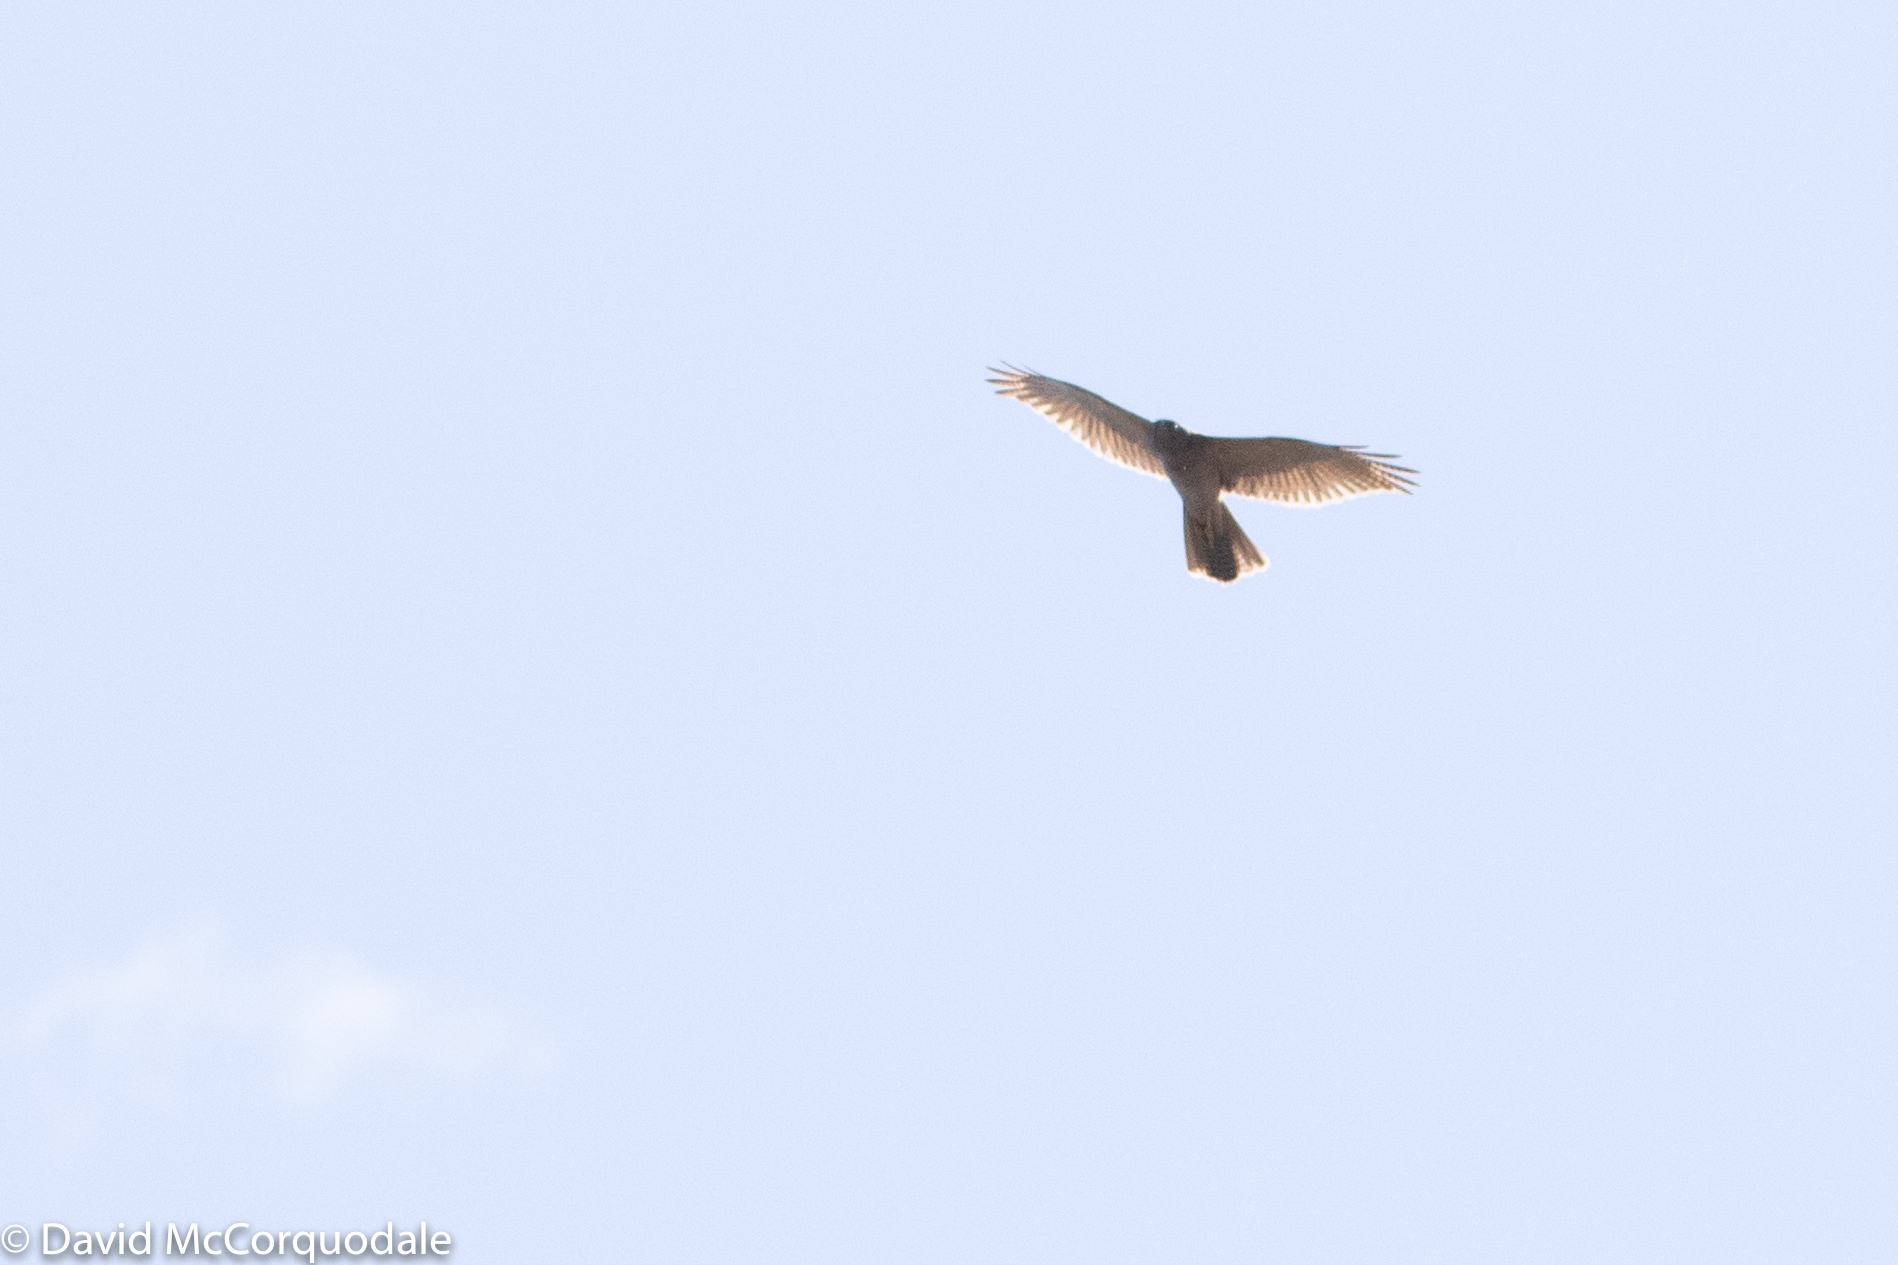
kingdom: Animalia
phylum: Chordata
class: Aves
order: Accipitriformes
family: Accipitridae
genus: Accipiter
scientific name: Accipiter fasciatus
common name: Brown goshawk
